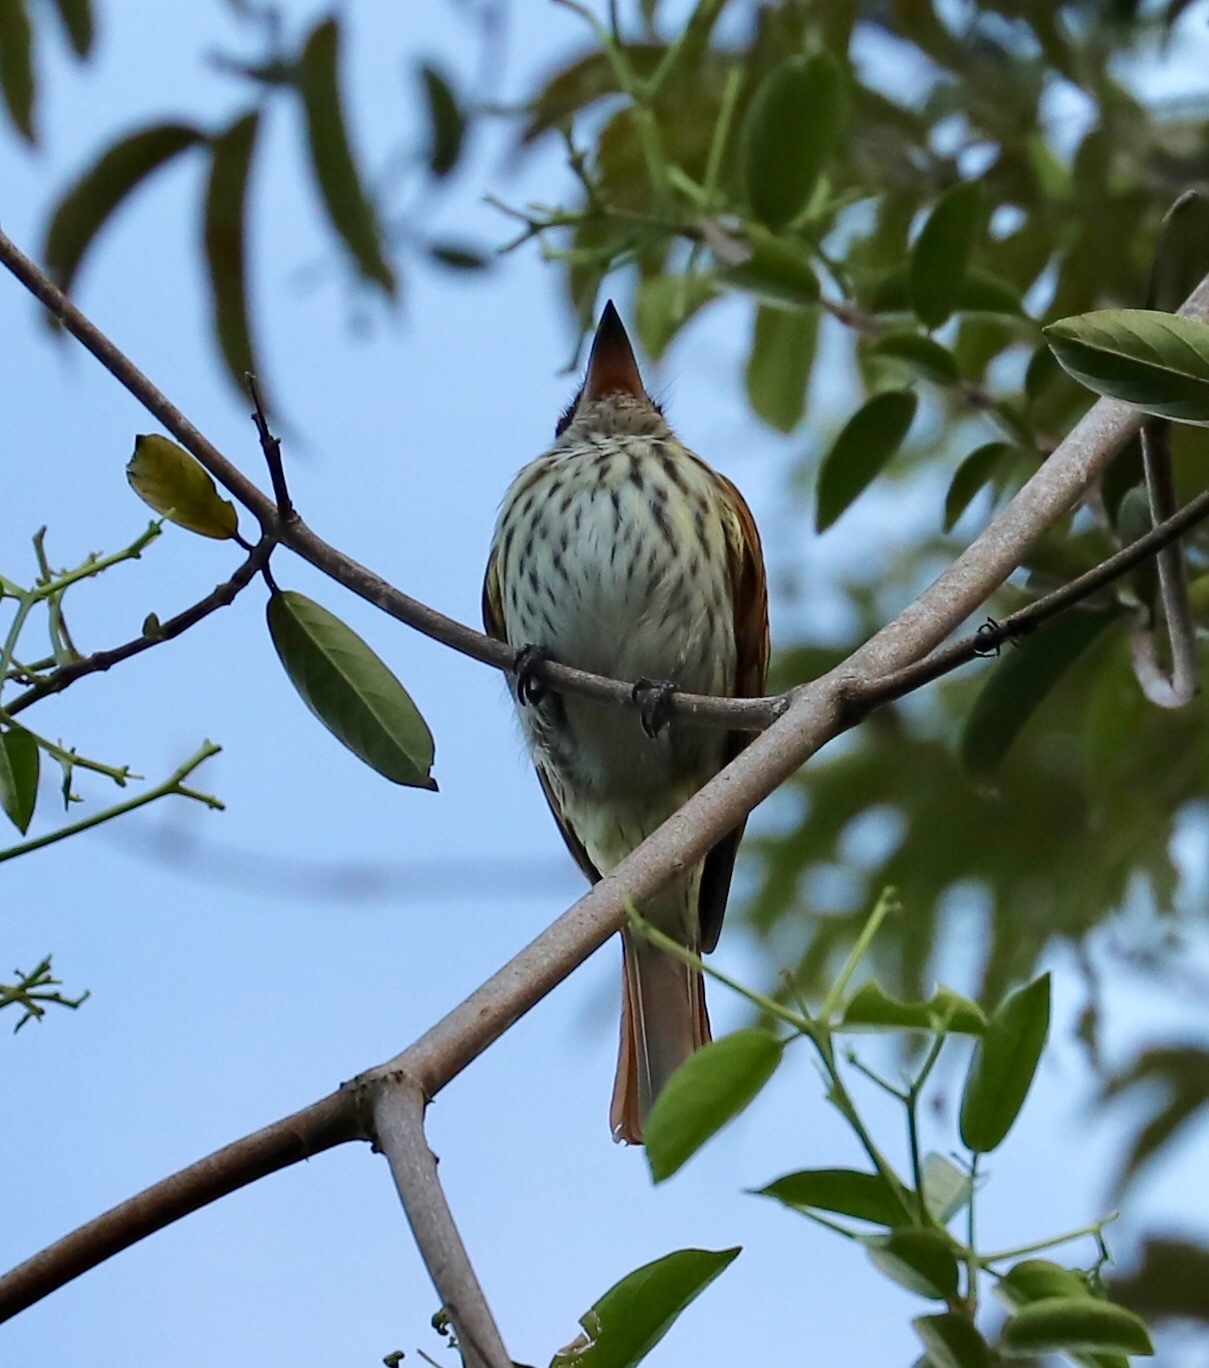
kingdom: Animalia
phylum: Chordata
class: Aves
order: Passeriformes
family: Tyrannidae
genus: Myiodynastes
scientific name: Myiodynastes maculatus
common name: Streaked flycatcher
